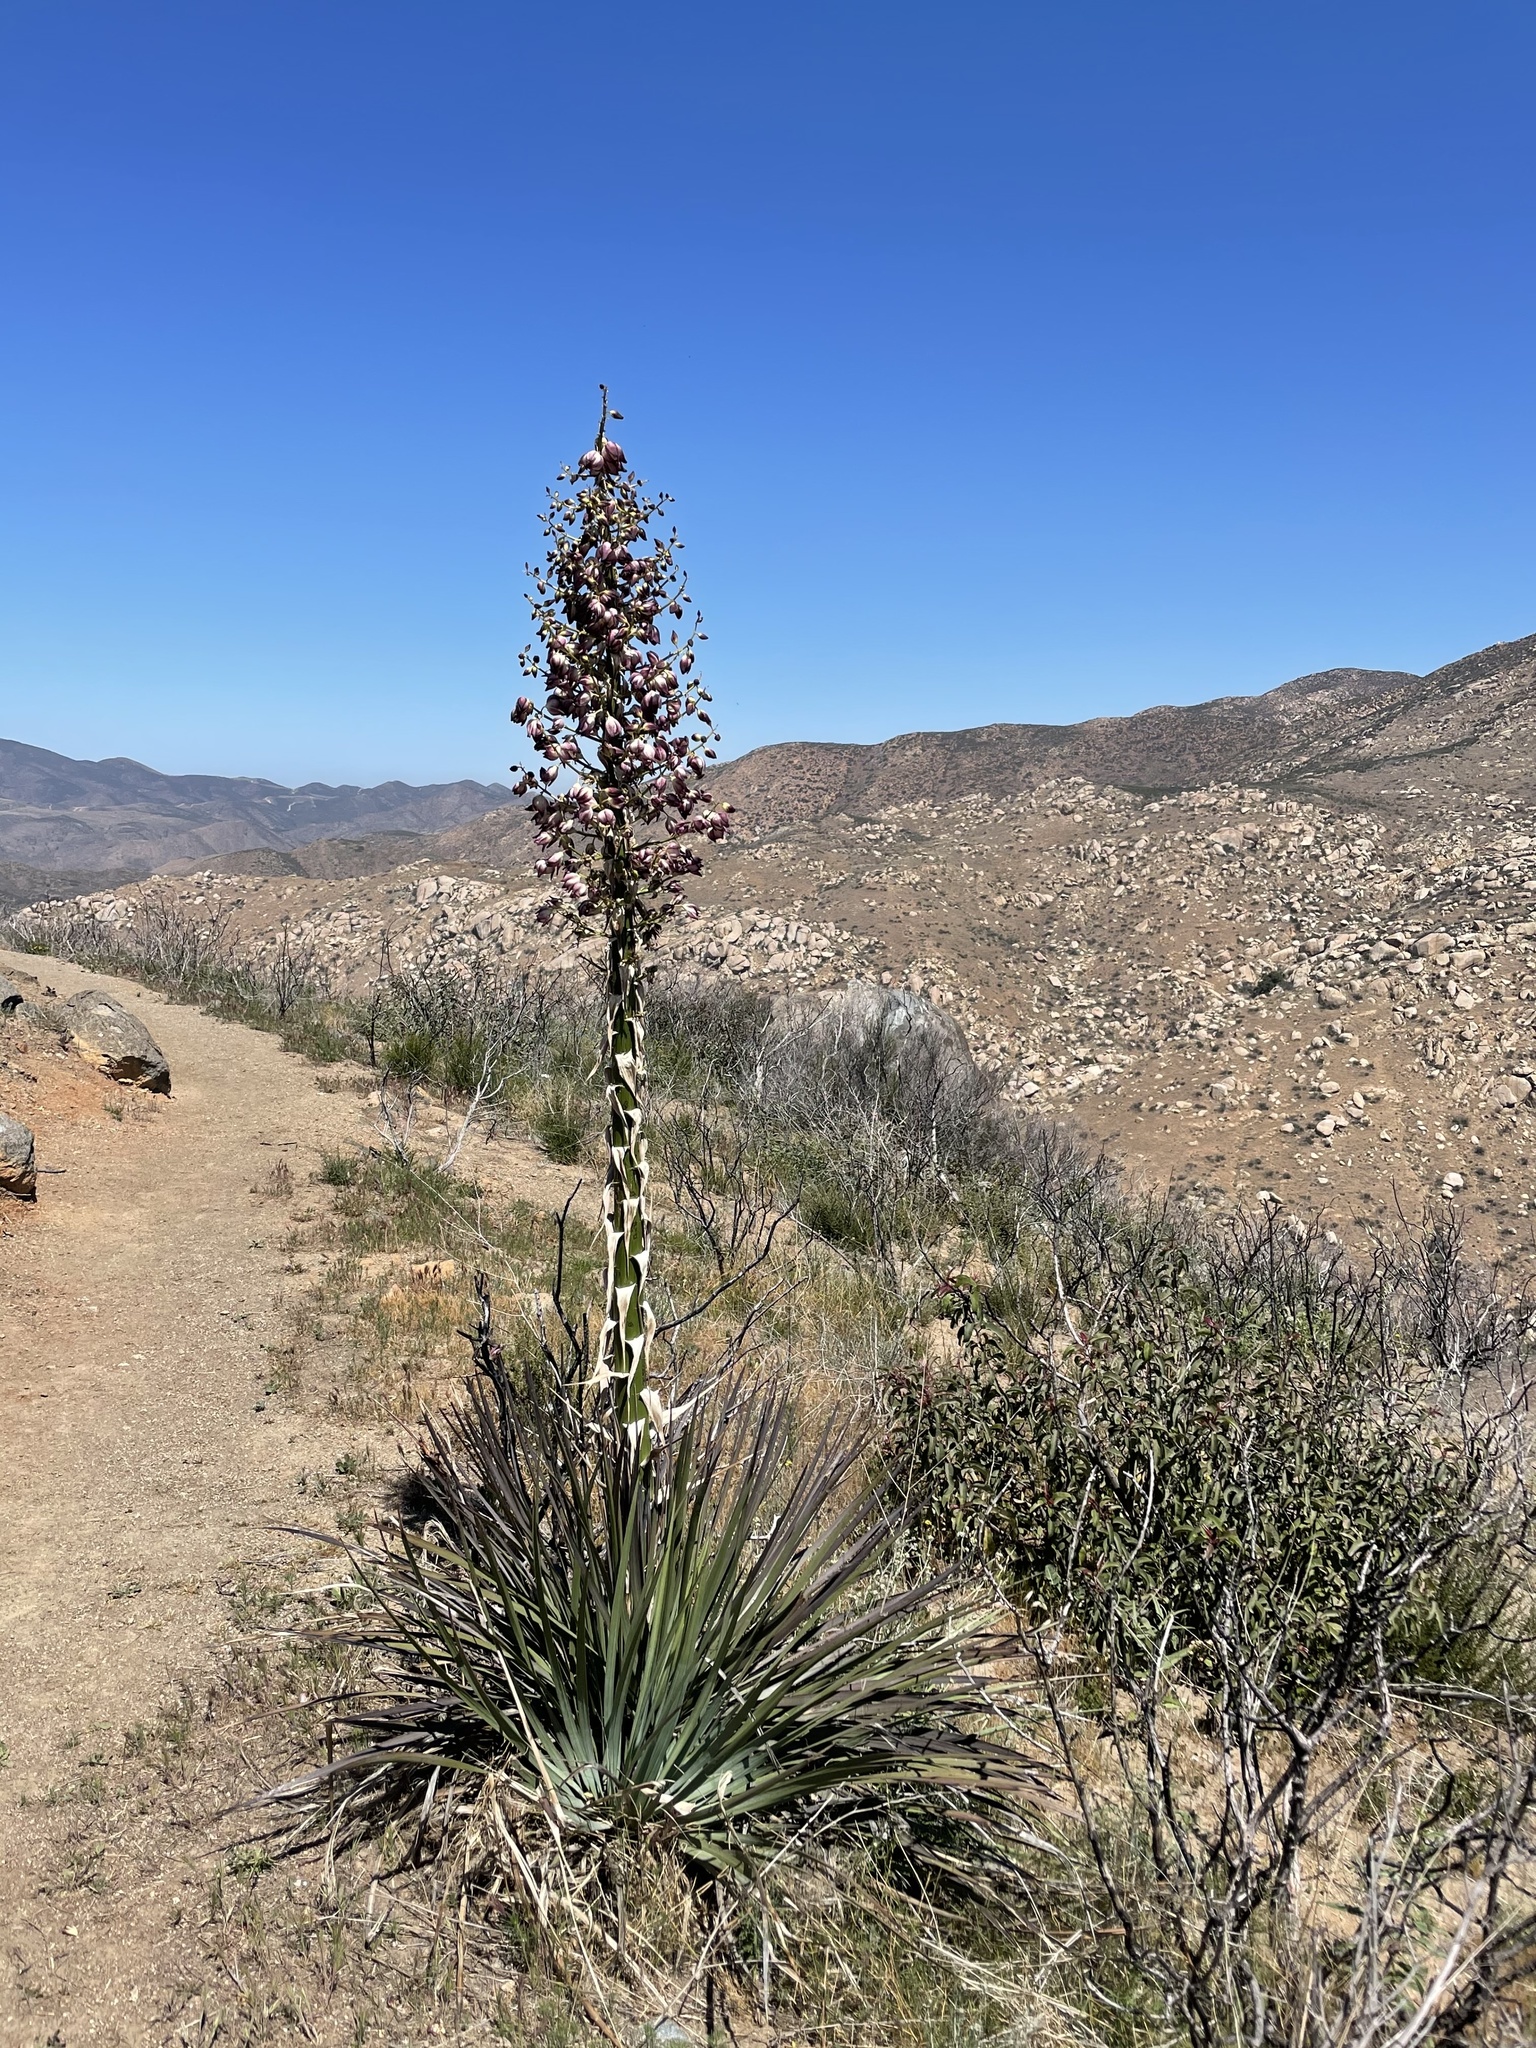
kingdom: Plantae
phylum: Tracheophyta
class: Liliopsida
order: Asparagales
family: Asparagaceae
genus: Hesperoyucca
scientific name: Hesperoyucca whipplei
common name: Our lord's-candle
